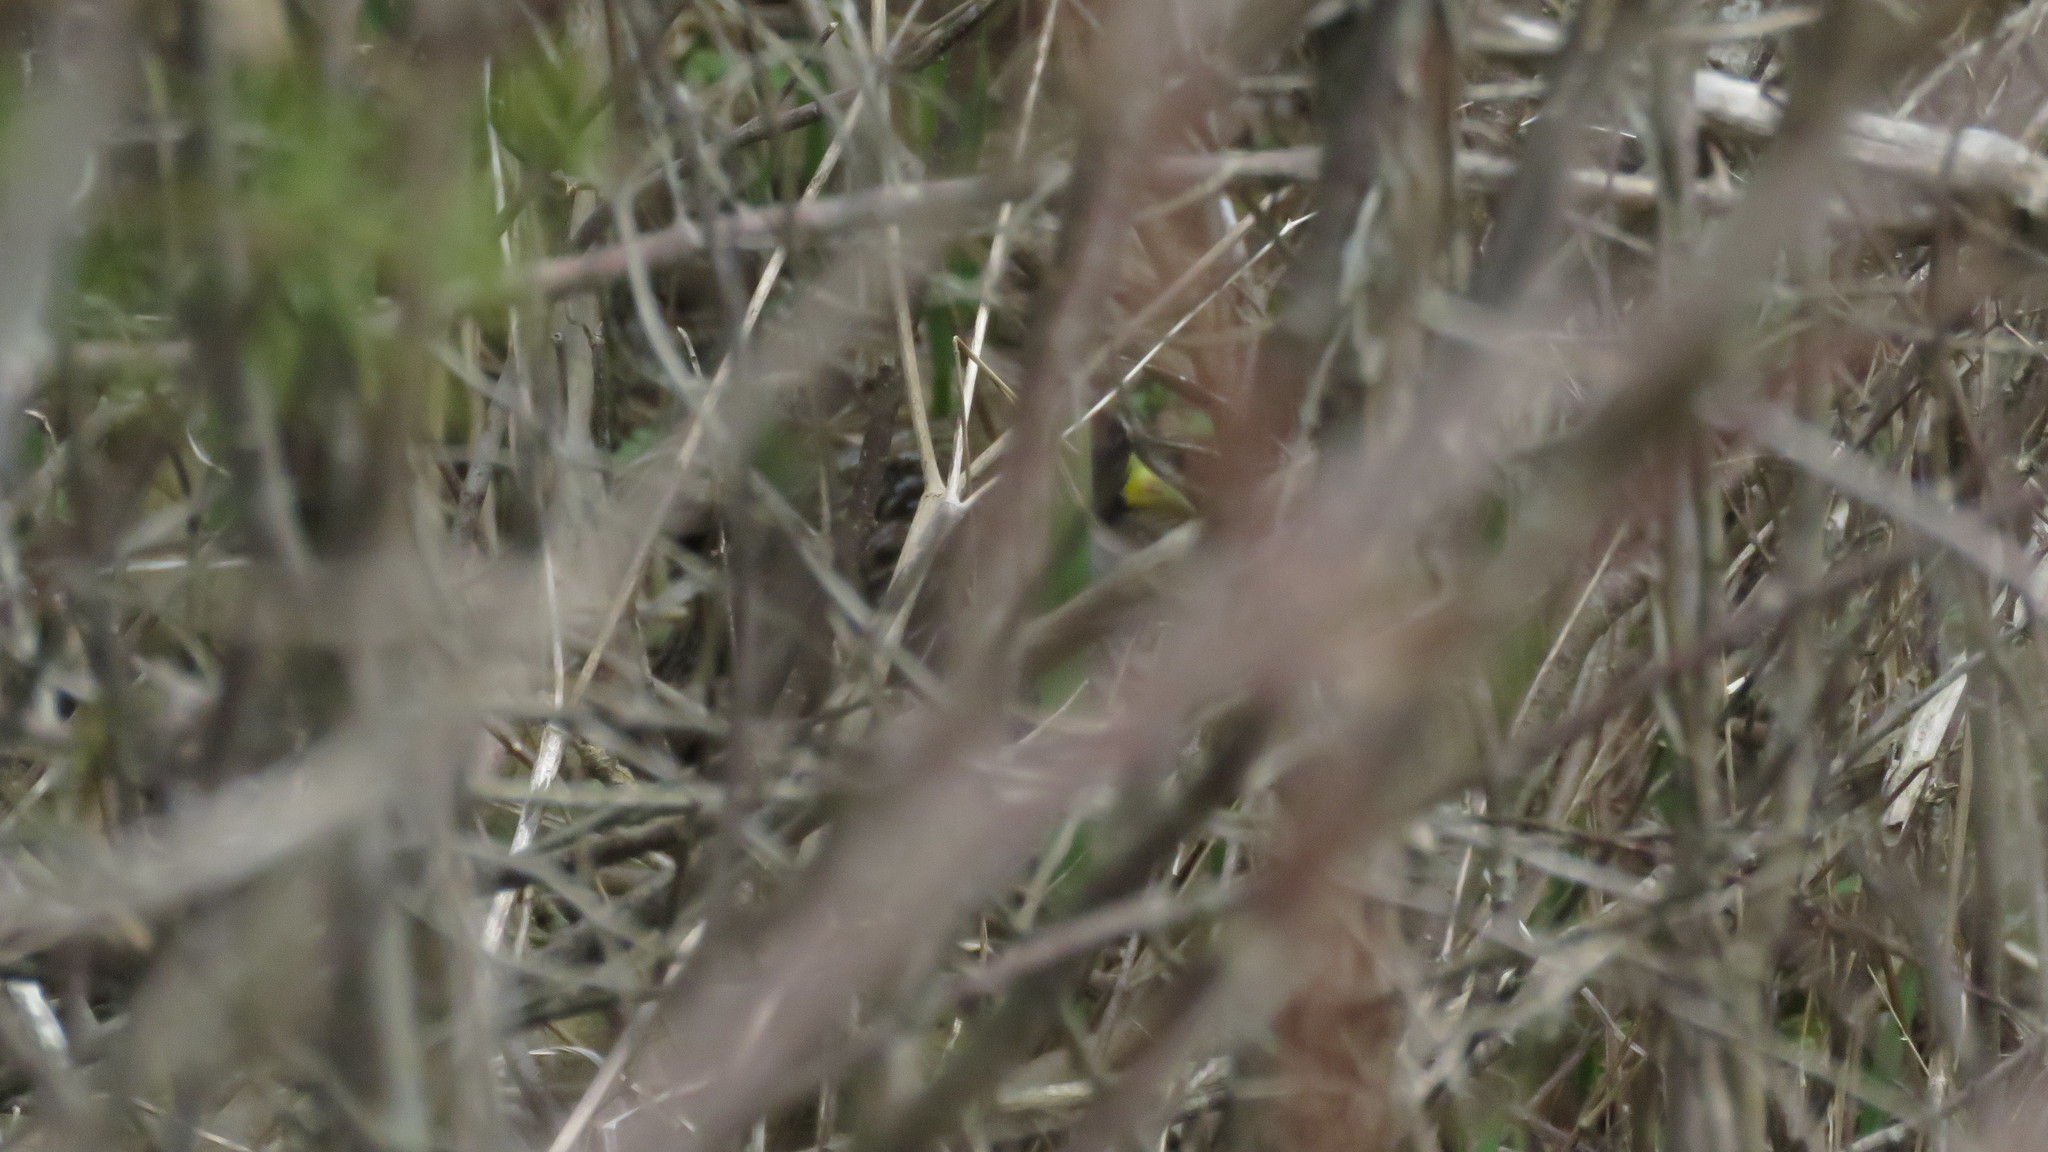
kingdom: Animalia
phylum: Chordata
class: Aves
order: Gruiformes
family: Rallidae
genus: Porzana
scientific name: Porzana carolina
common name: Sora
